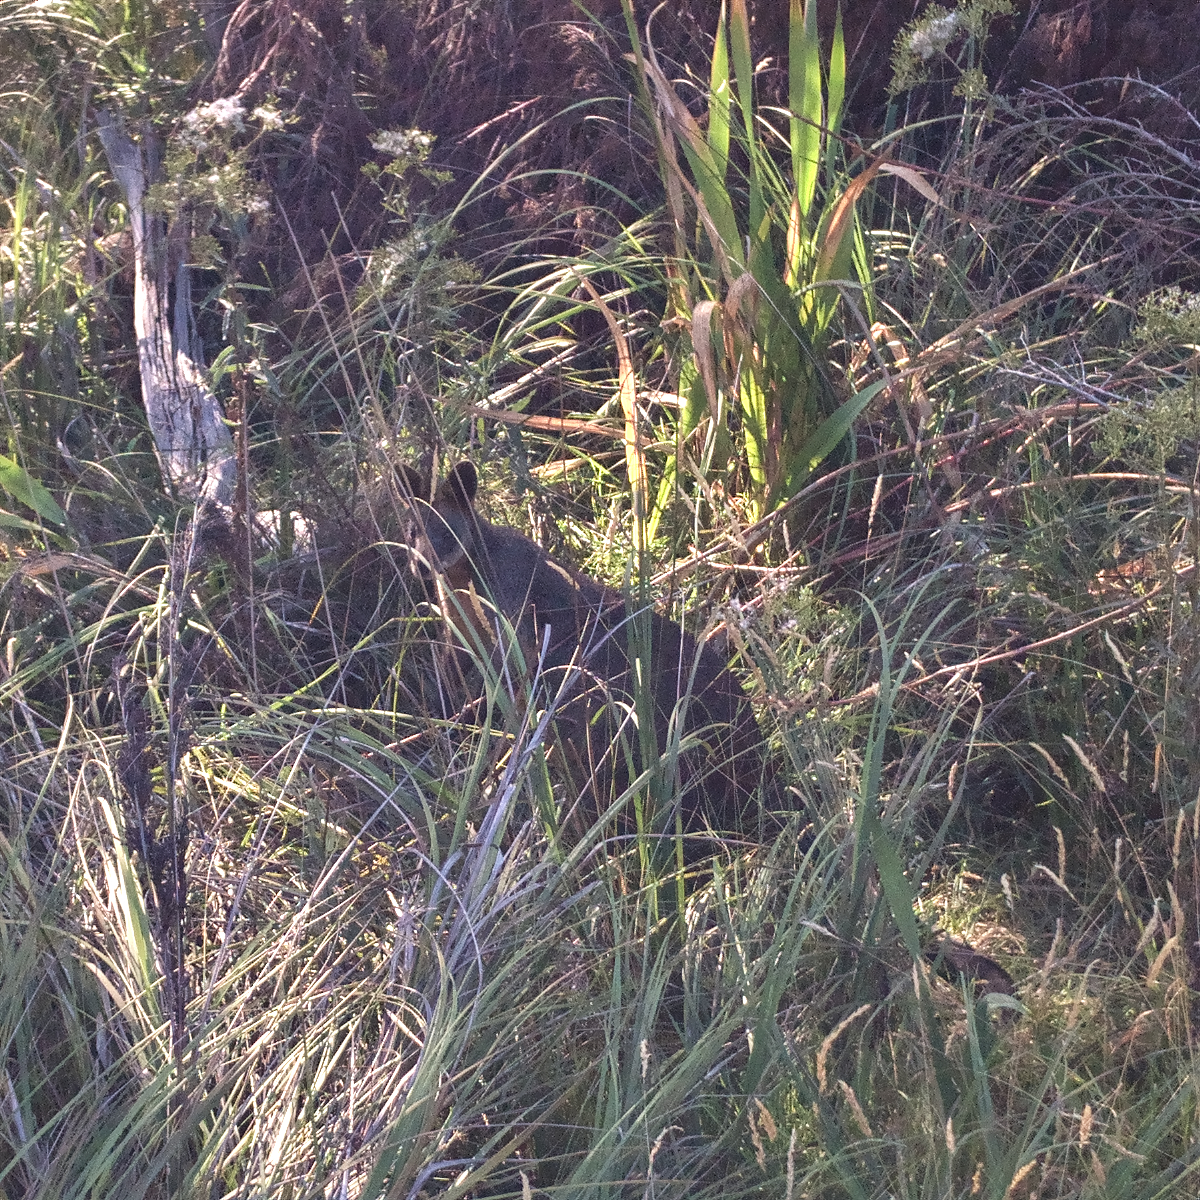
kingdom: Animalia
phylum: Chordata
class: Mammalia
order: Diprotodontia
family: Macropodidae
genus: Wallabia
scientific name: Wallabia bicolor
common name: Swamp wallaby
